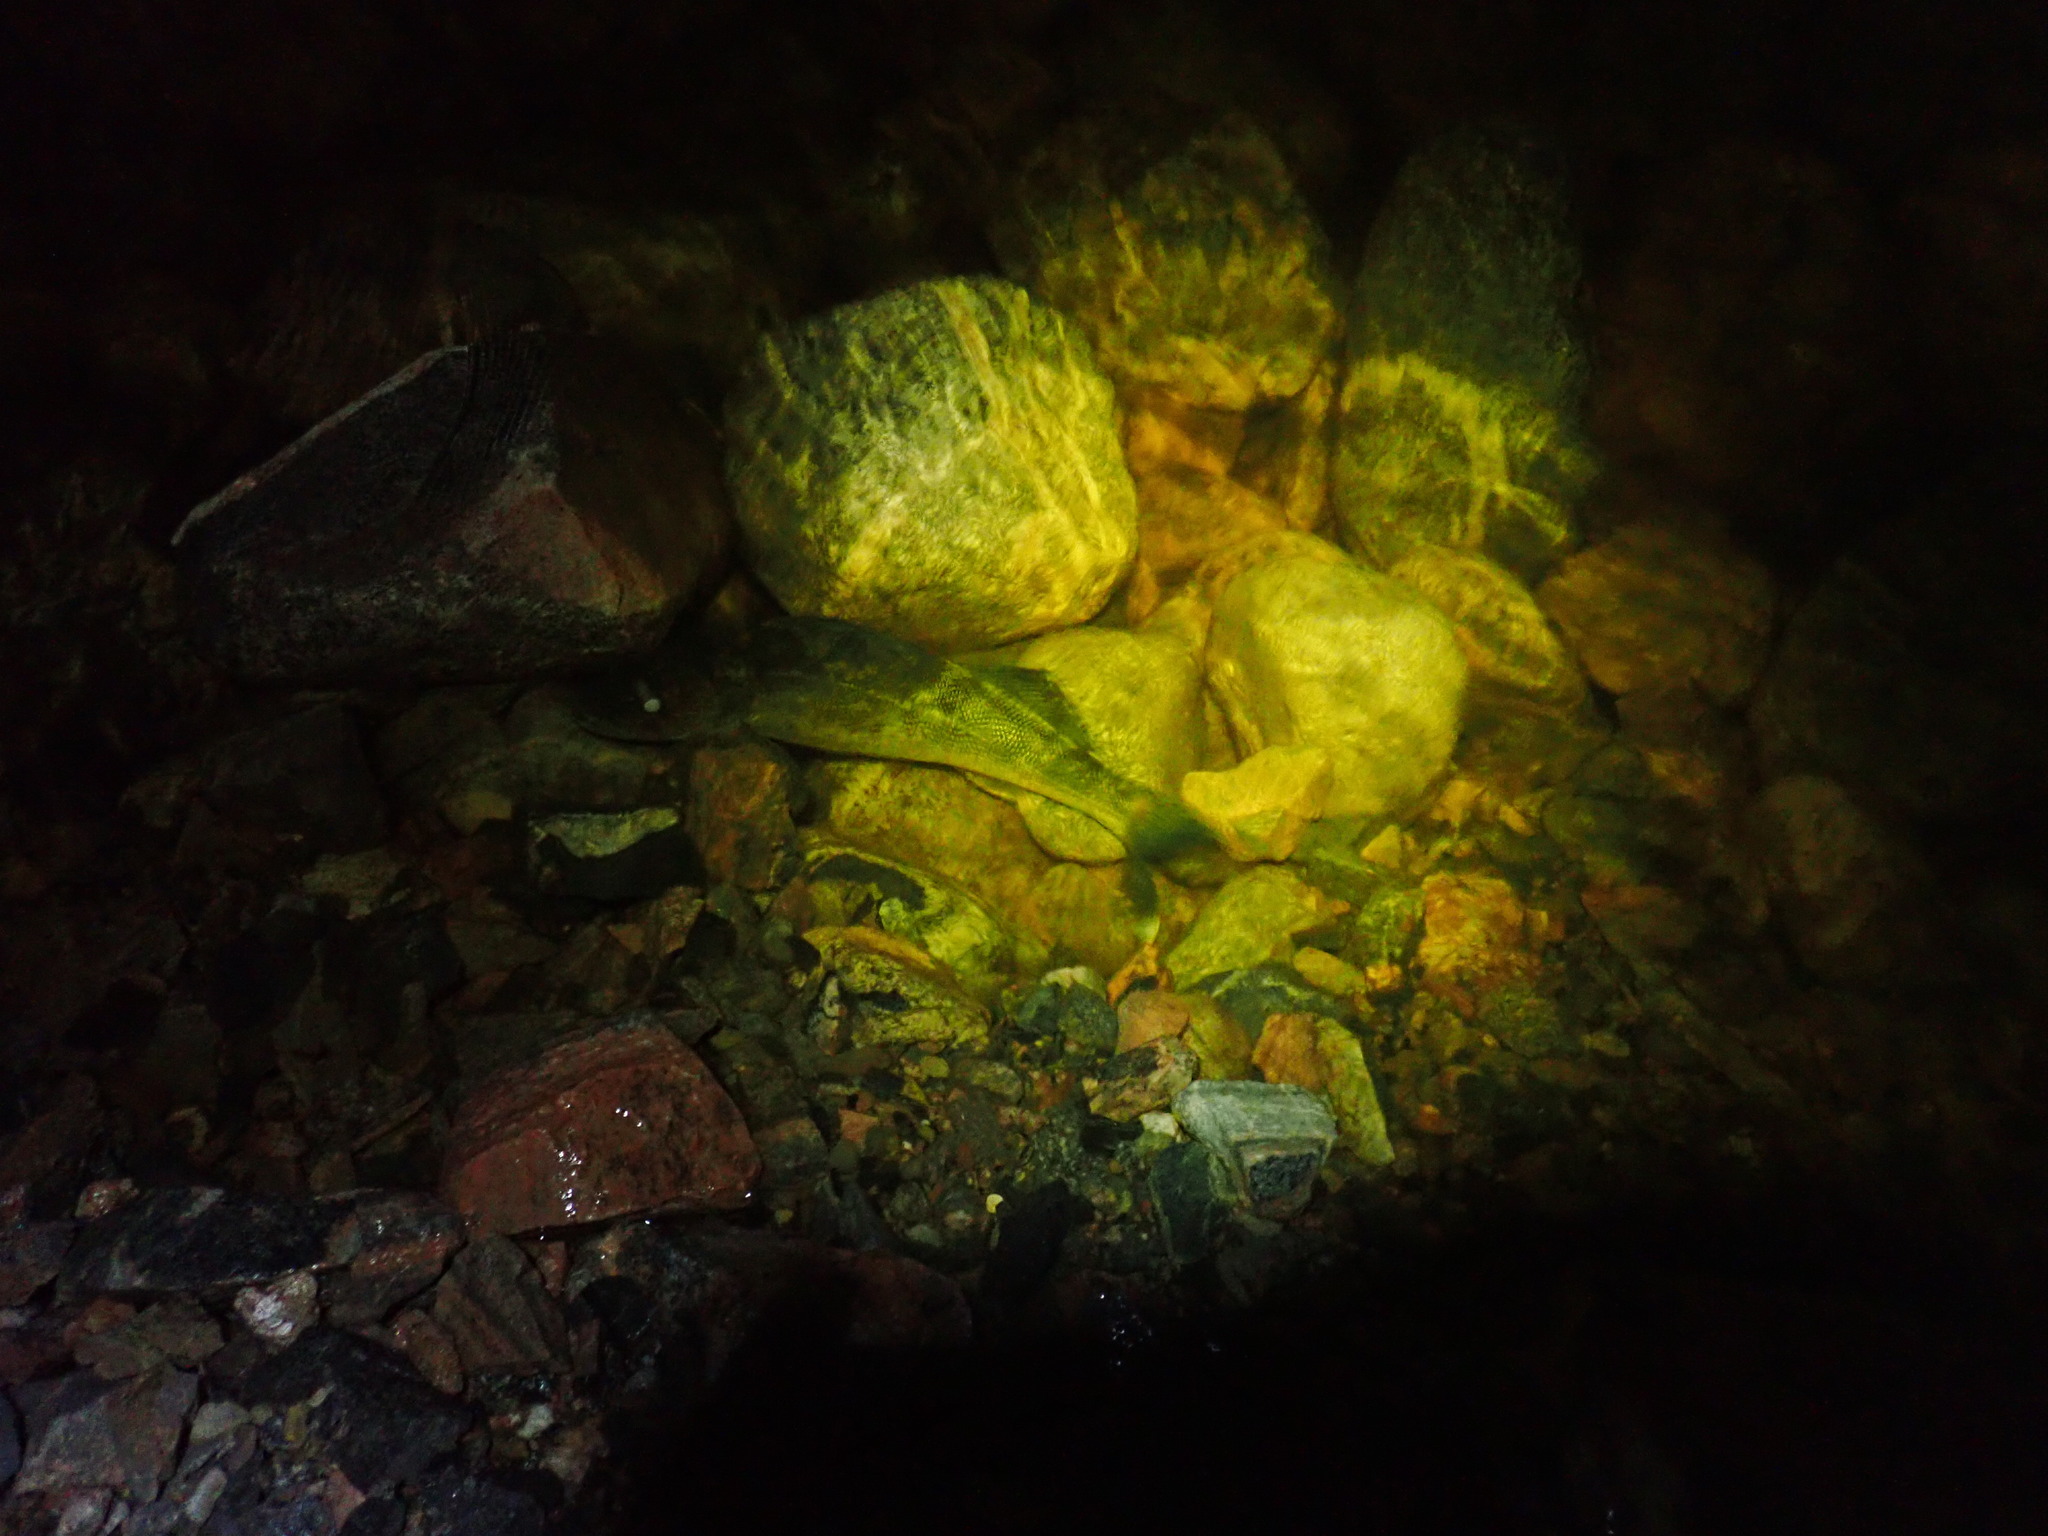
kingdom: Animalia
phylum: Chordata
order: Perciformes
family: Percidae
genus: Sander
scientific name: Sander vitreus
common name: Walleye
